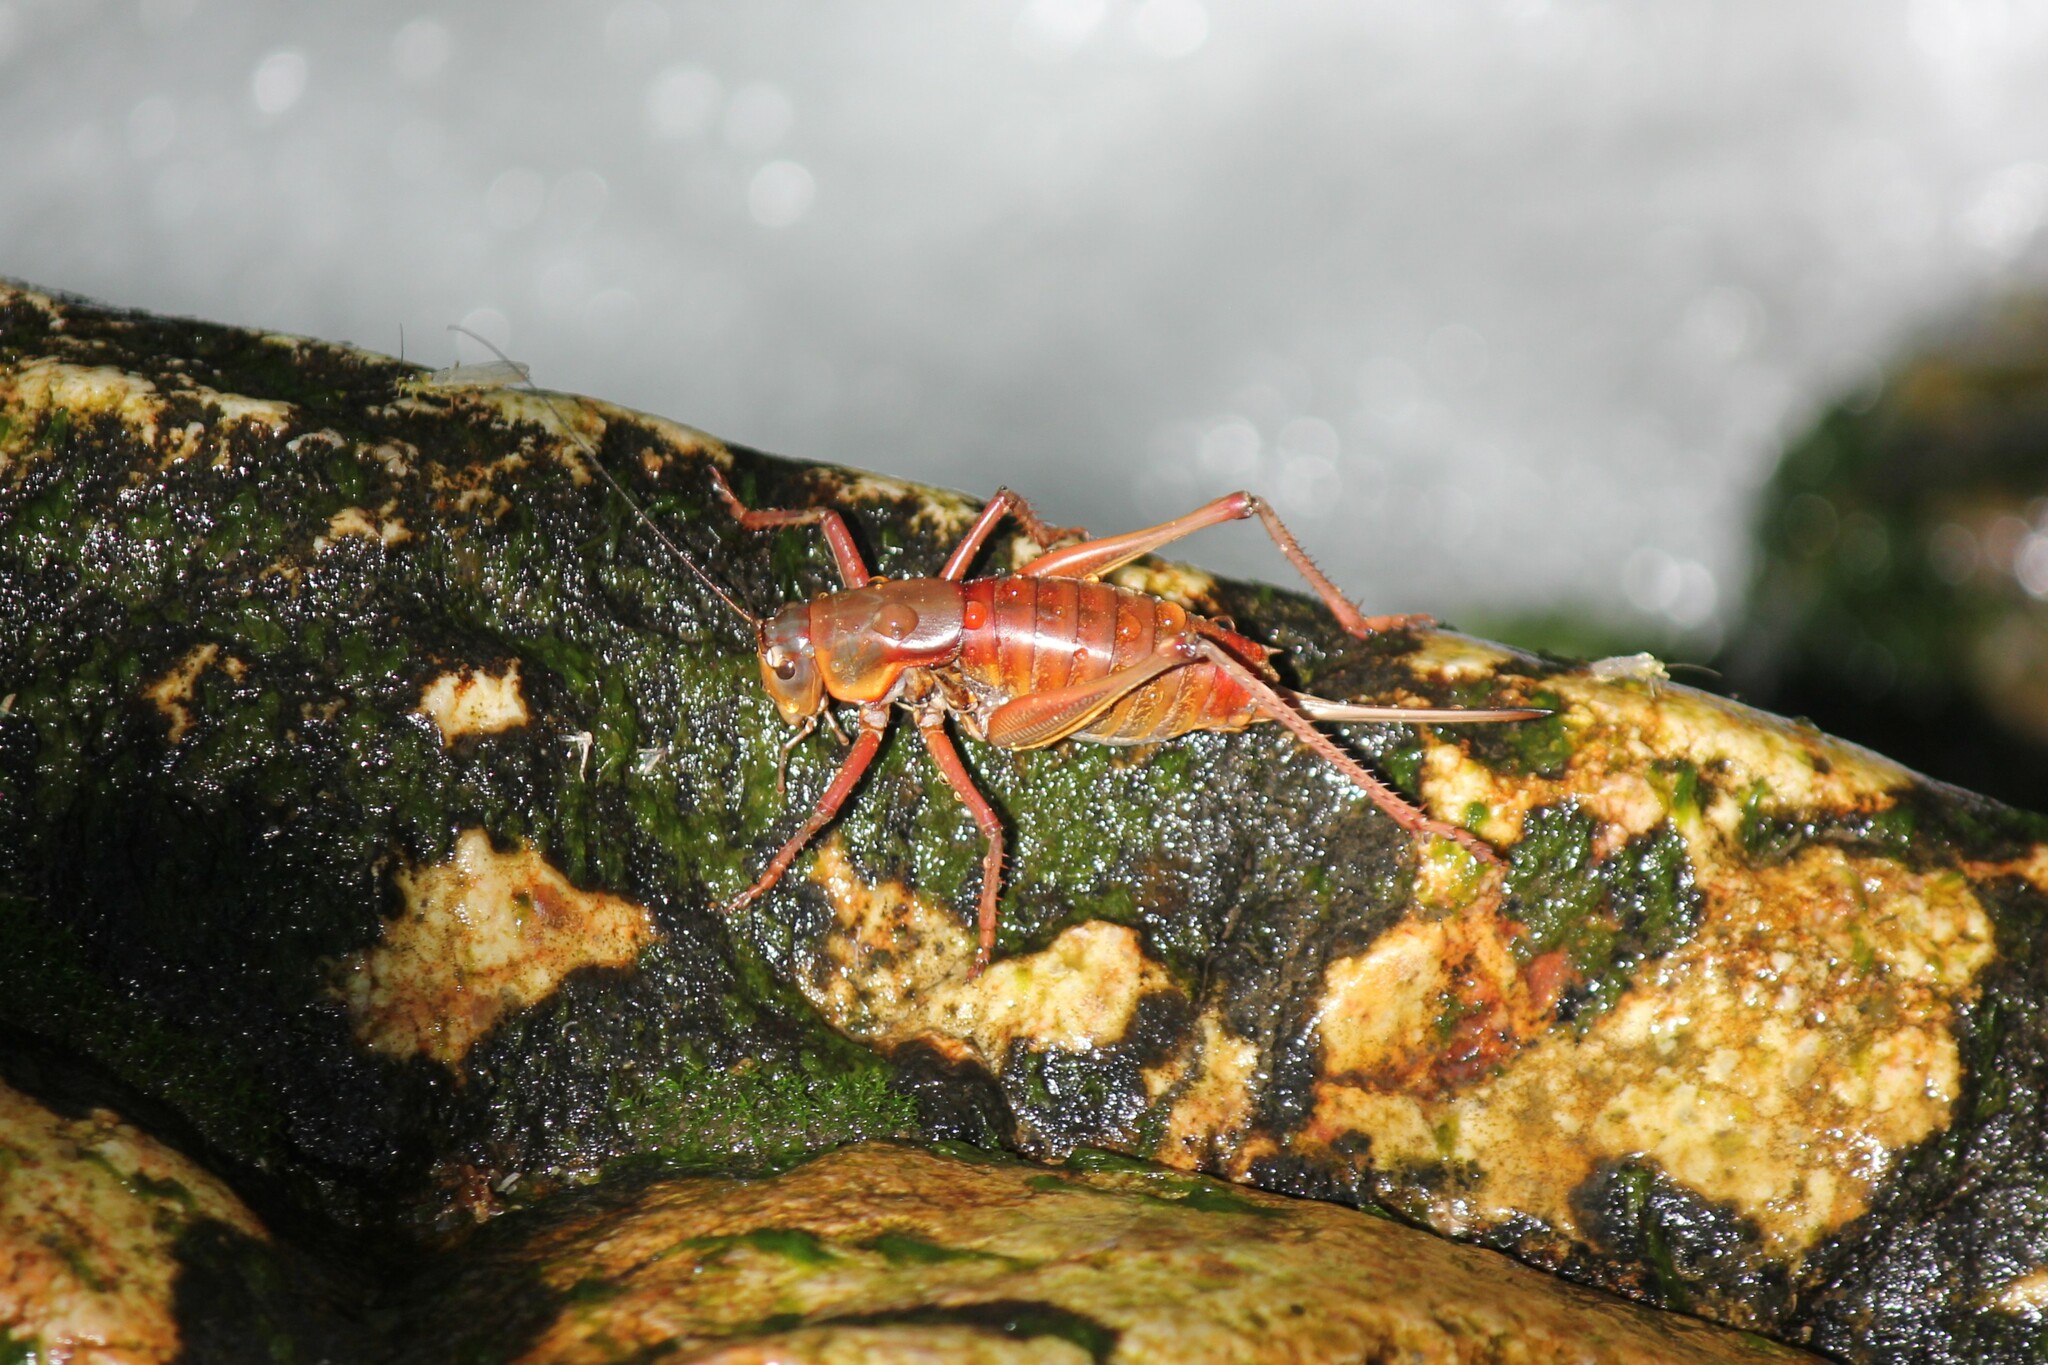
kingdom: Animalia
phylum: Arthropoda
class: Insecta
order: Orthoptera
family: Tettigoniidae
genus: Anabrus
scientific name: Anabrus simplex
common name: Mormon cricket
